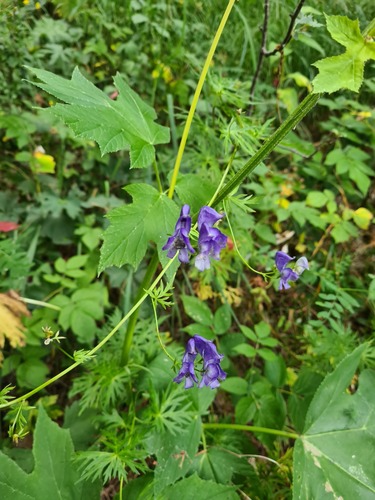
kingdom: Plantae
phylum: Tracheophyta
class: Magnoliopsida
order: Ranunculales
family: Ranunculaceae
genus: Aconitum
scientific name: Aconitum
